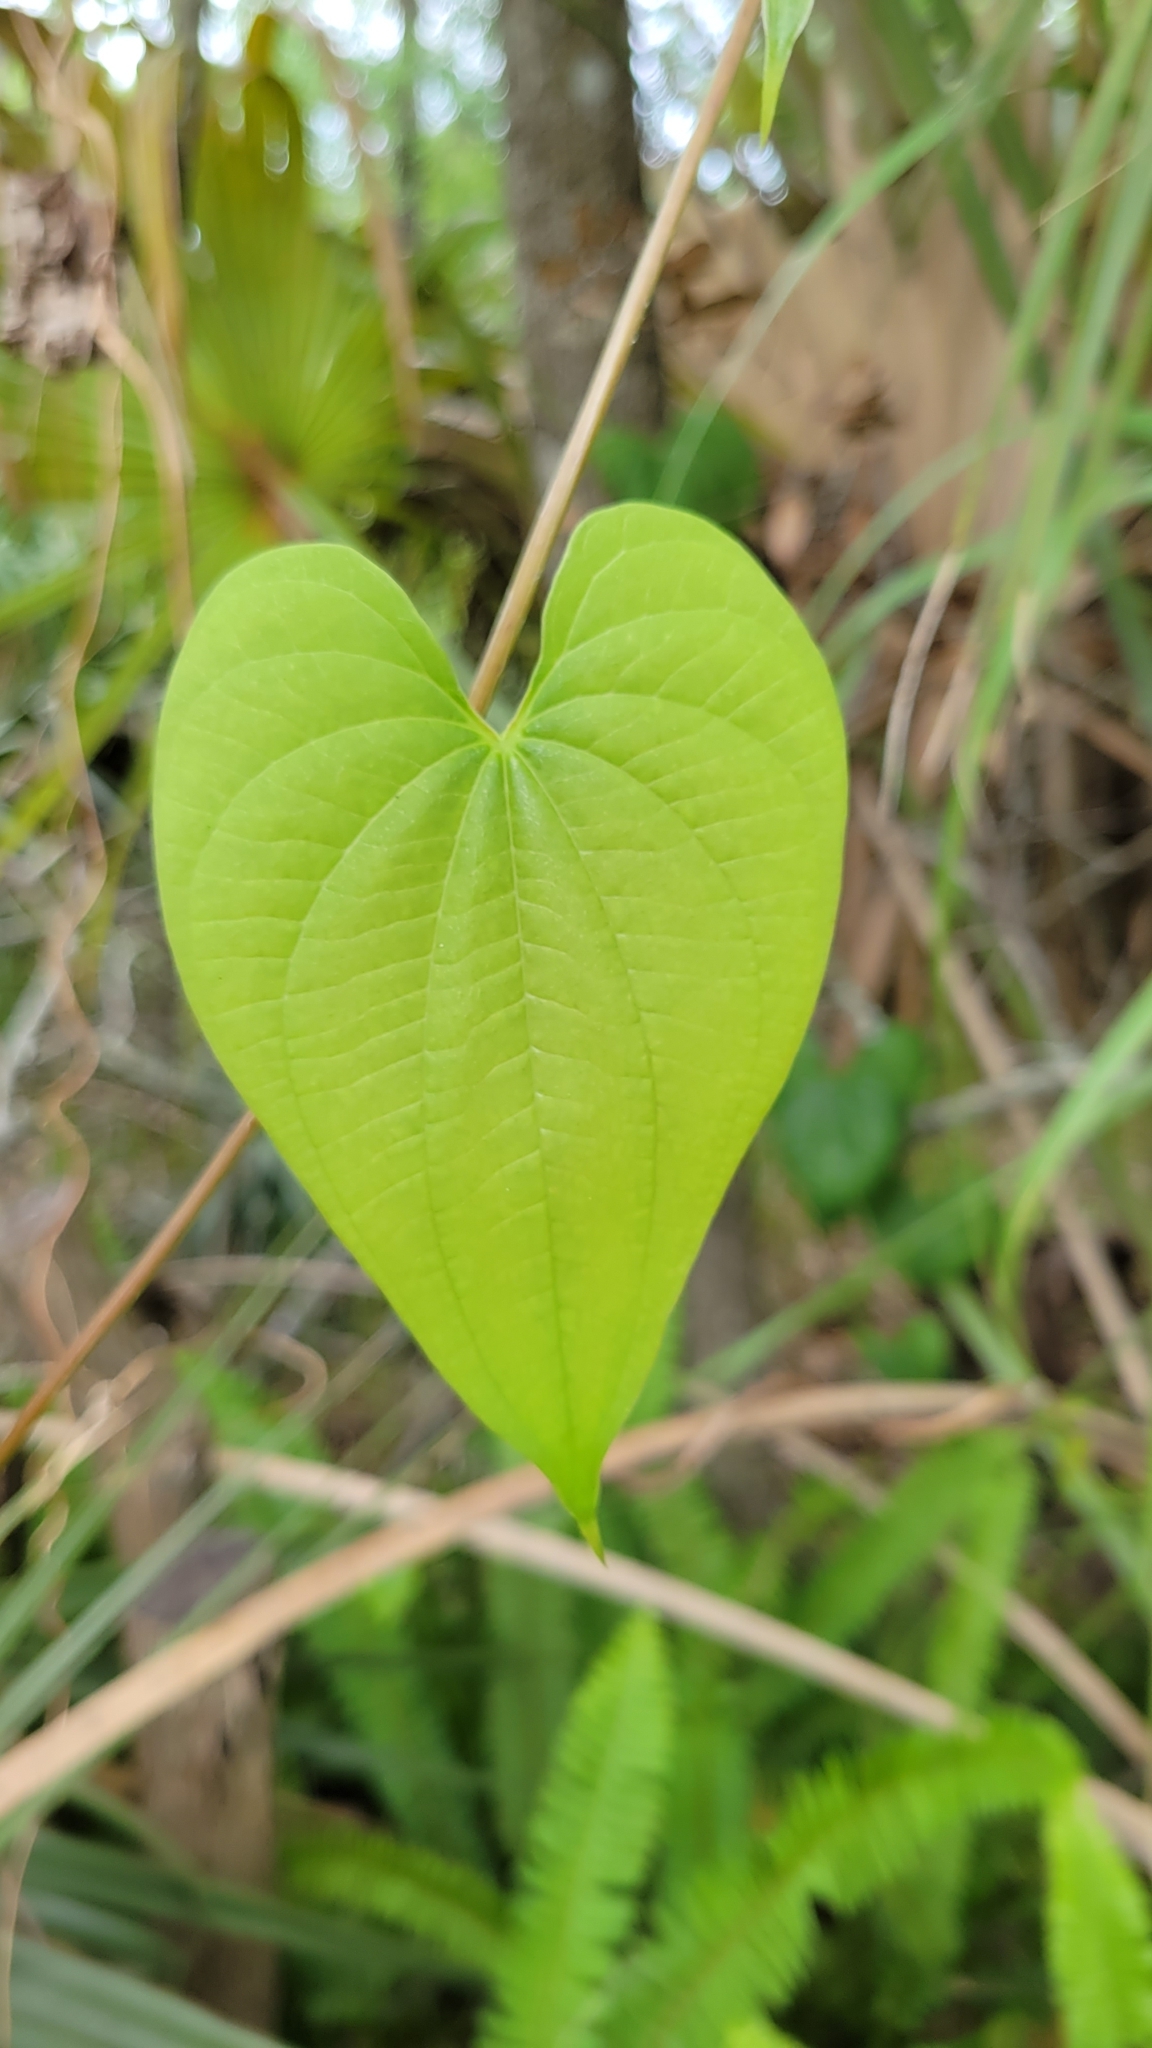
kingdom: Plantae
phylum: Tracheophyta
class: Liliopsida
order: Dioscoreales
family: Dioscoreaceae
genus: Dioscorea
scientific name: Dioscorea bulbifera
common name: Air yam
